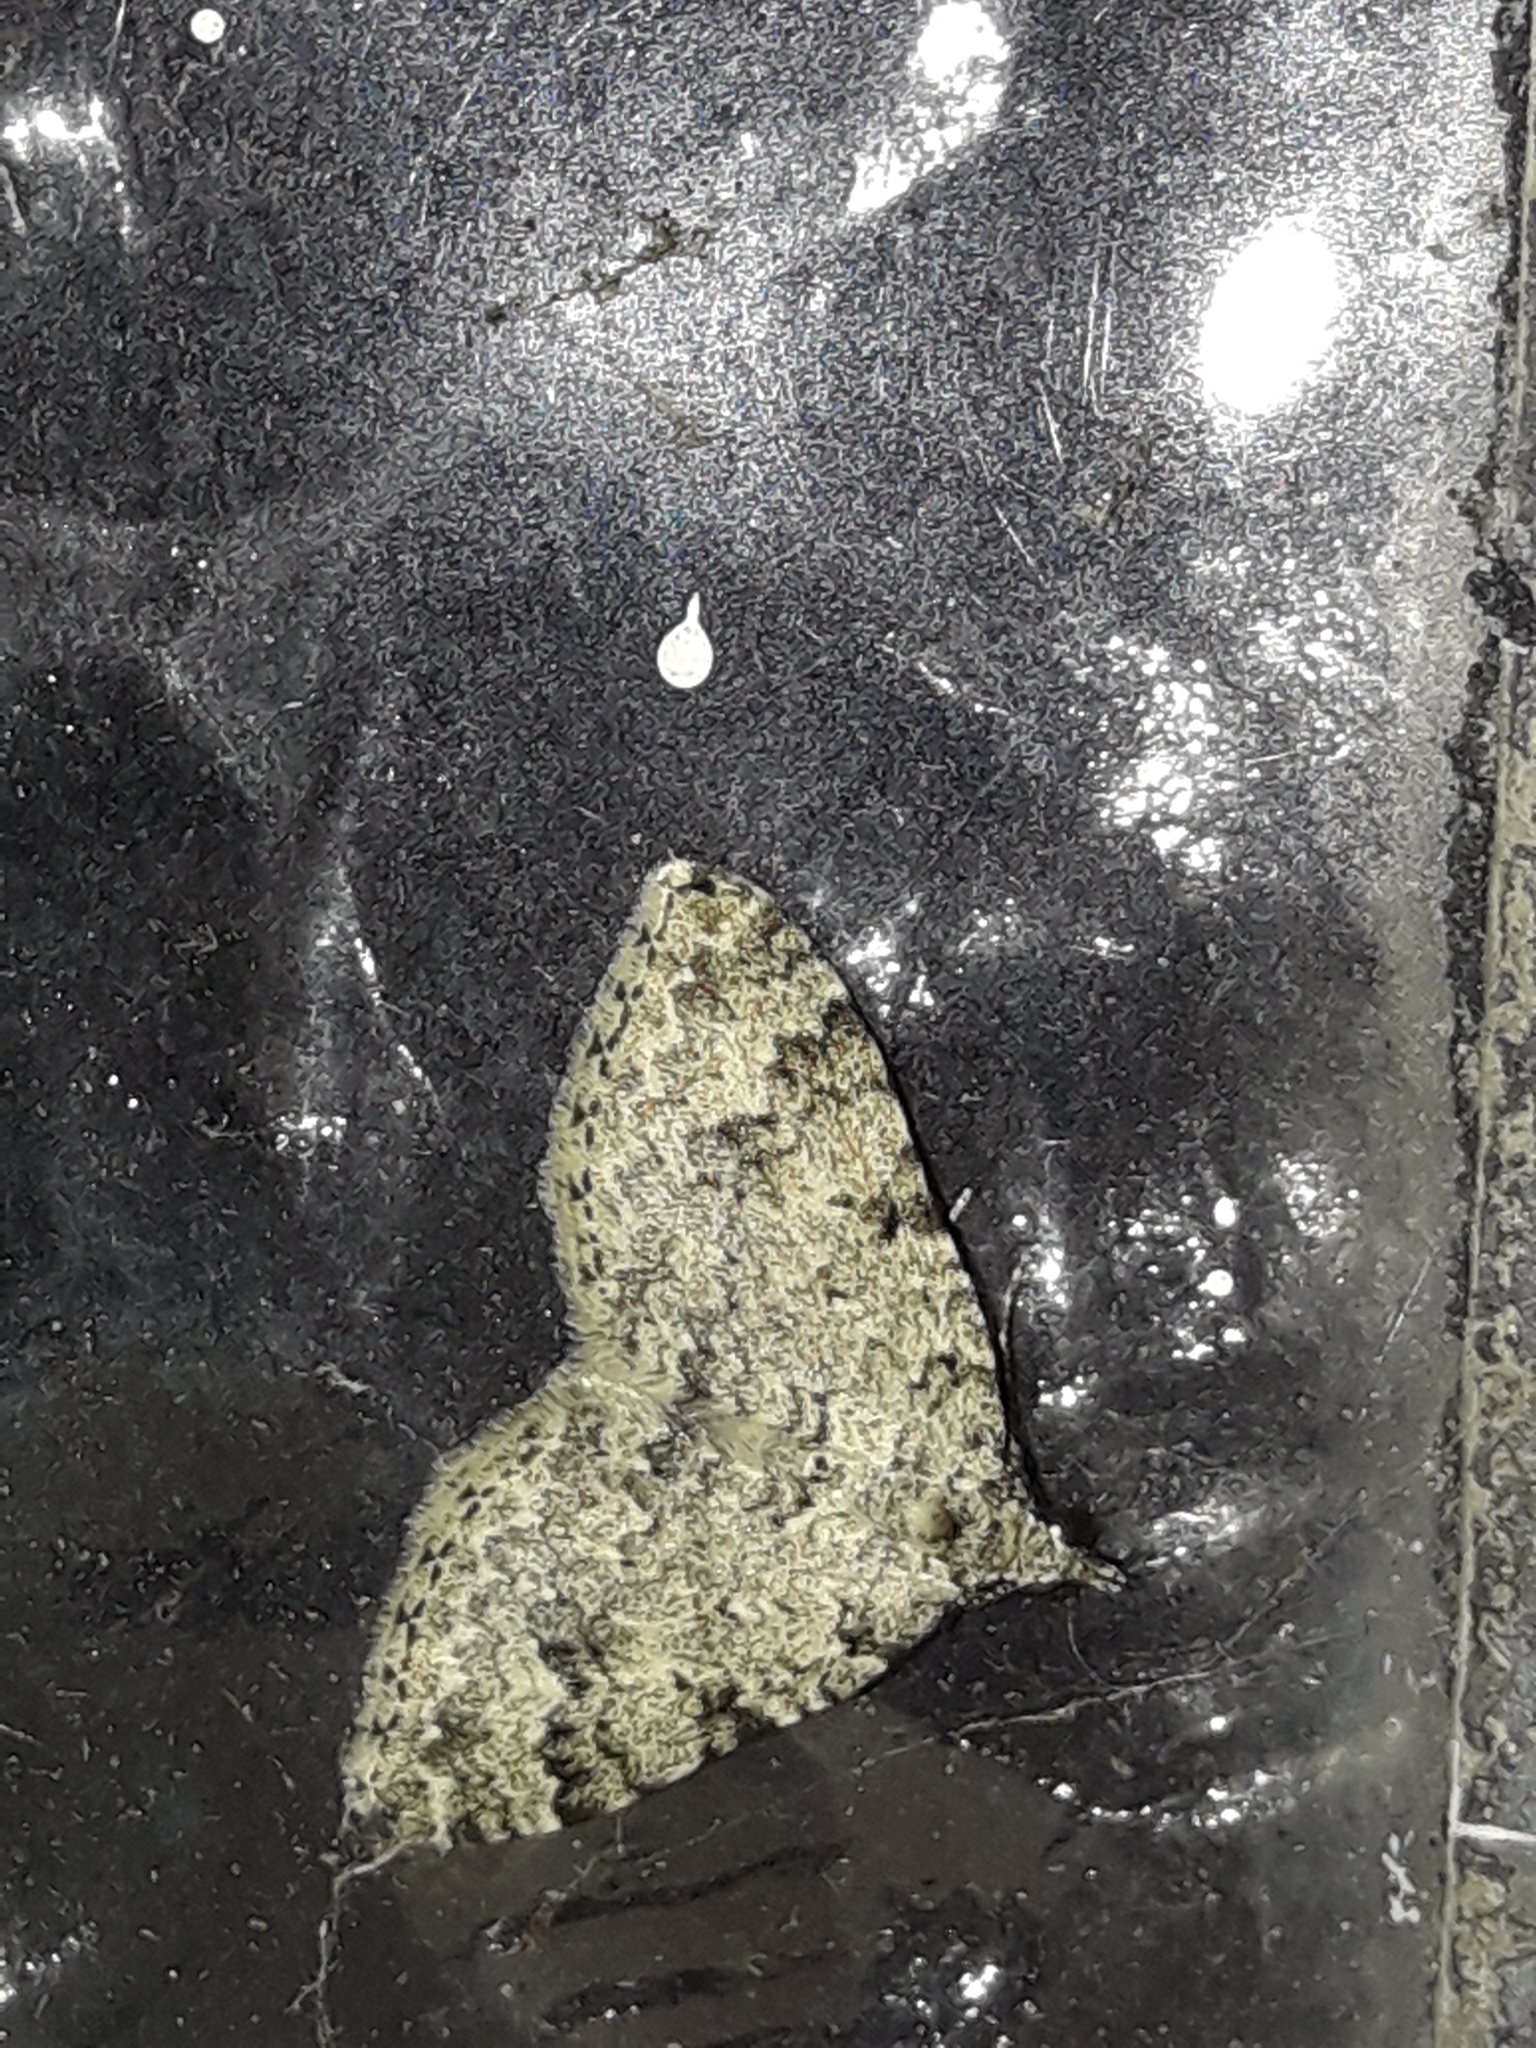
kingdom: Animalia
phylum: Arthropoda
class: Insecta
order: Lepidoptera
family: Geometridae
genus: Helastia
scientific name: Helastia cinerearia
